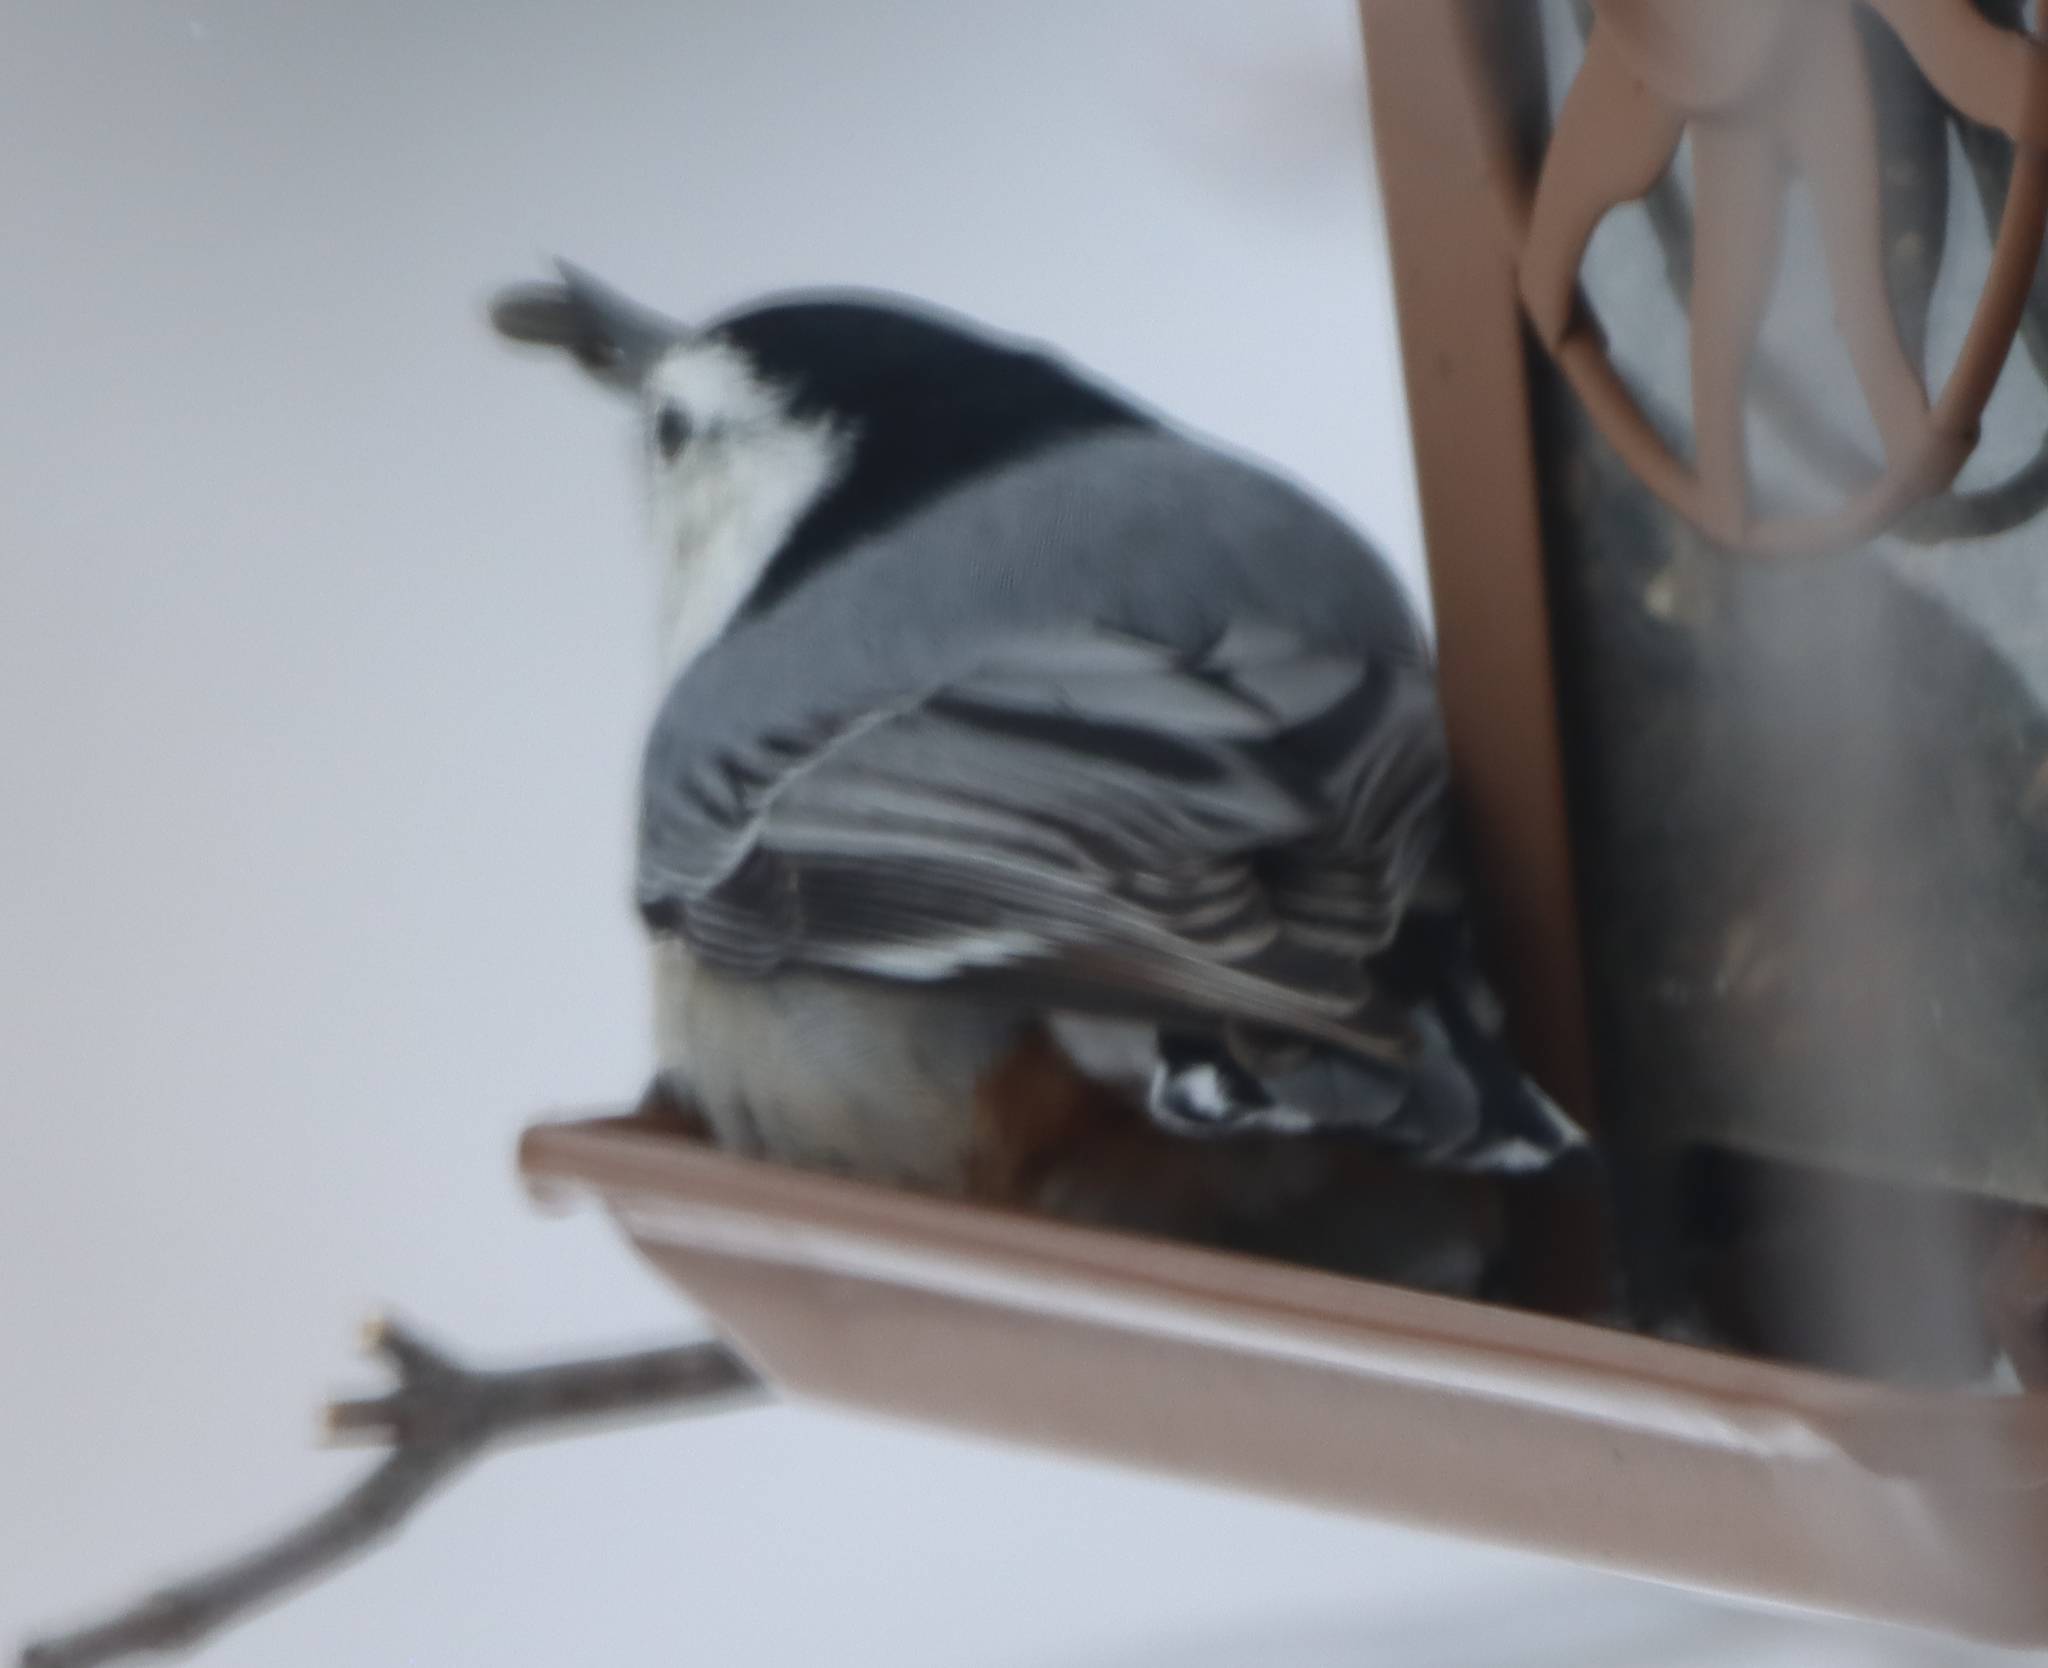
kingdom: Animalia
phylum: Chordata
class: Aves
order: Passeriformes
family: Sittidae
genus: Sitta
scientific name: Sitta carolinensis
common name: White-breasted nuthatch
